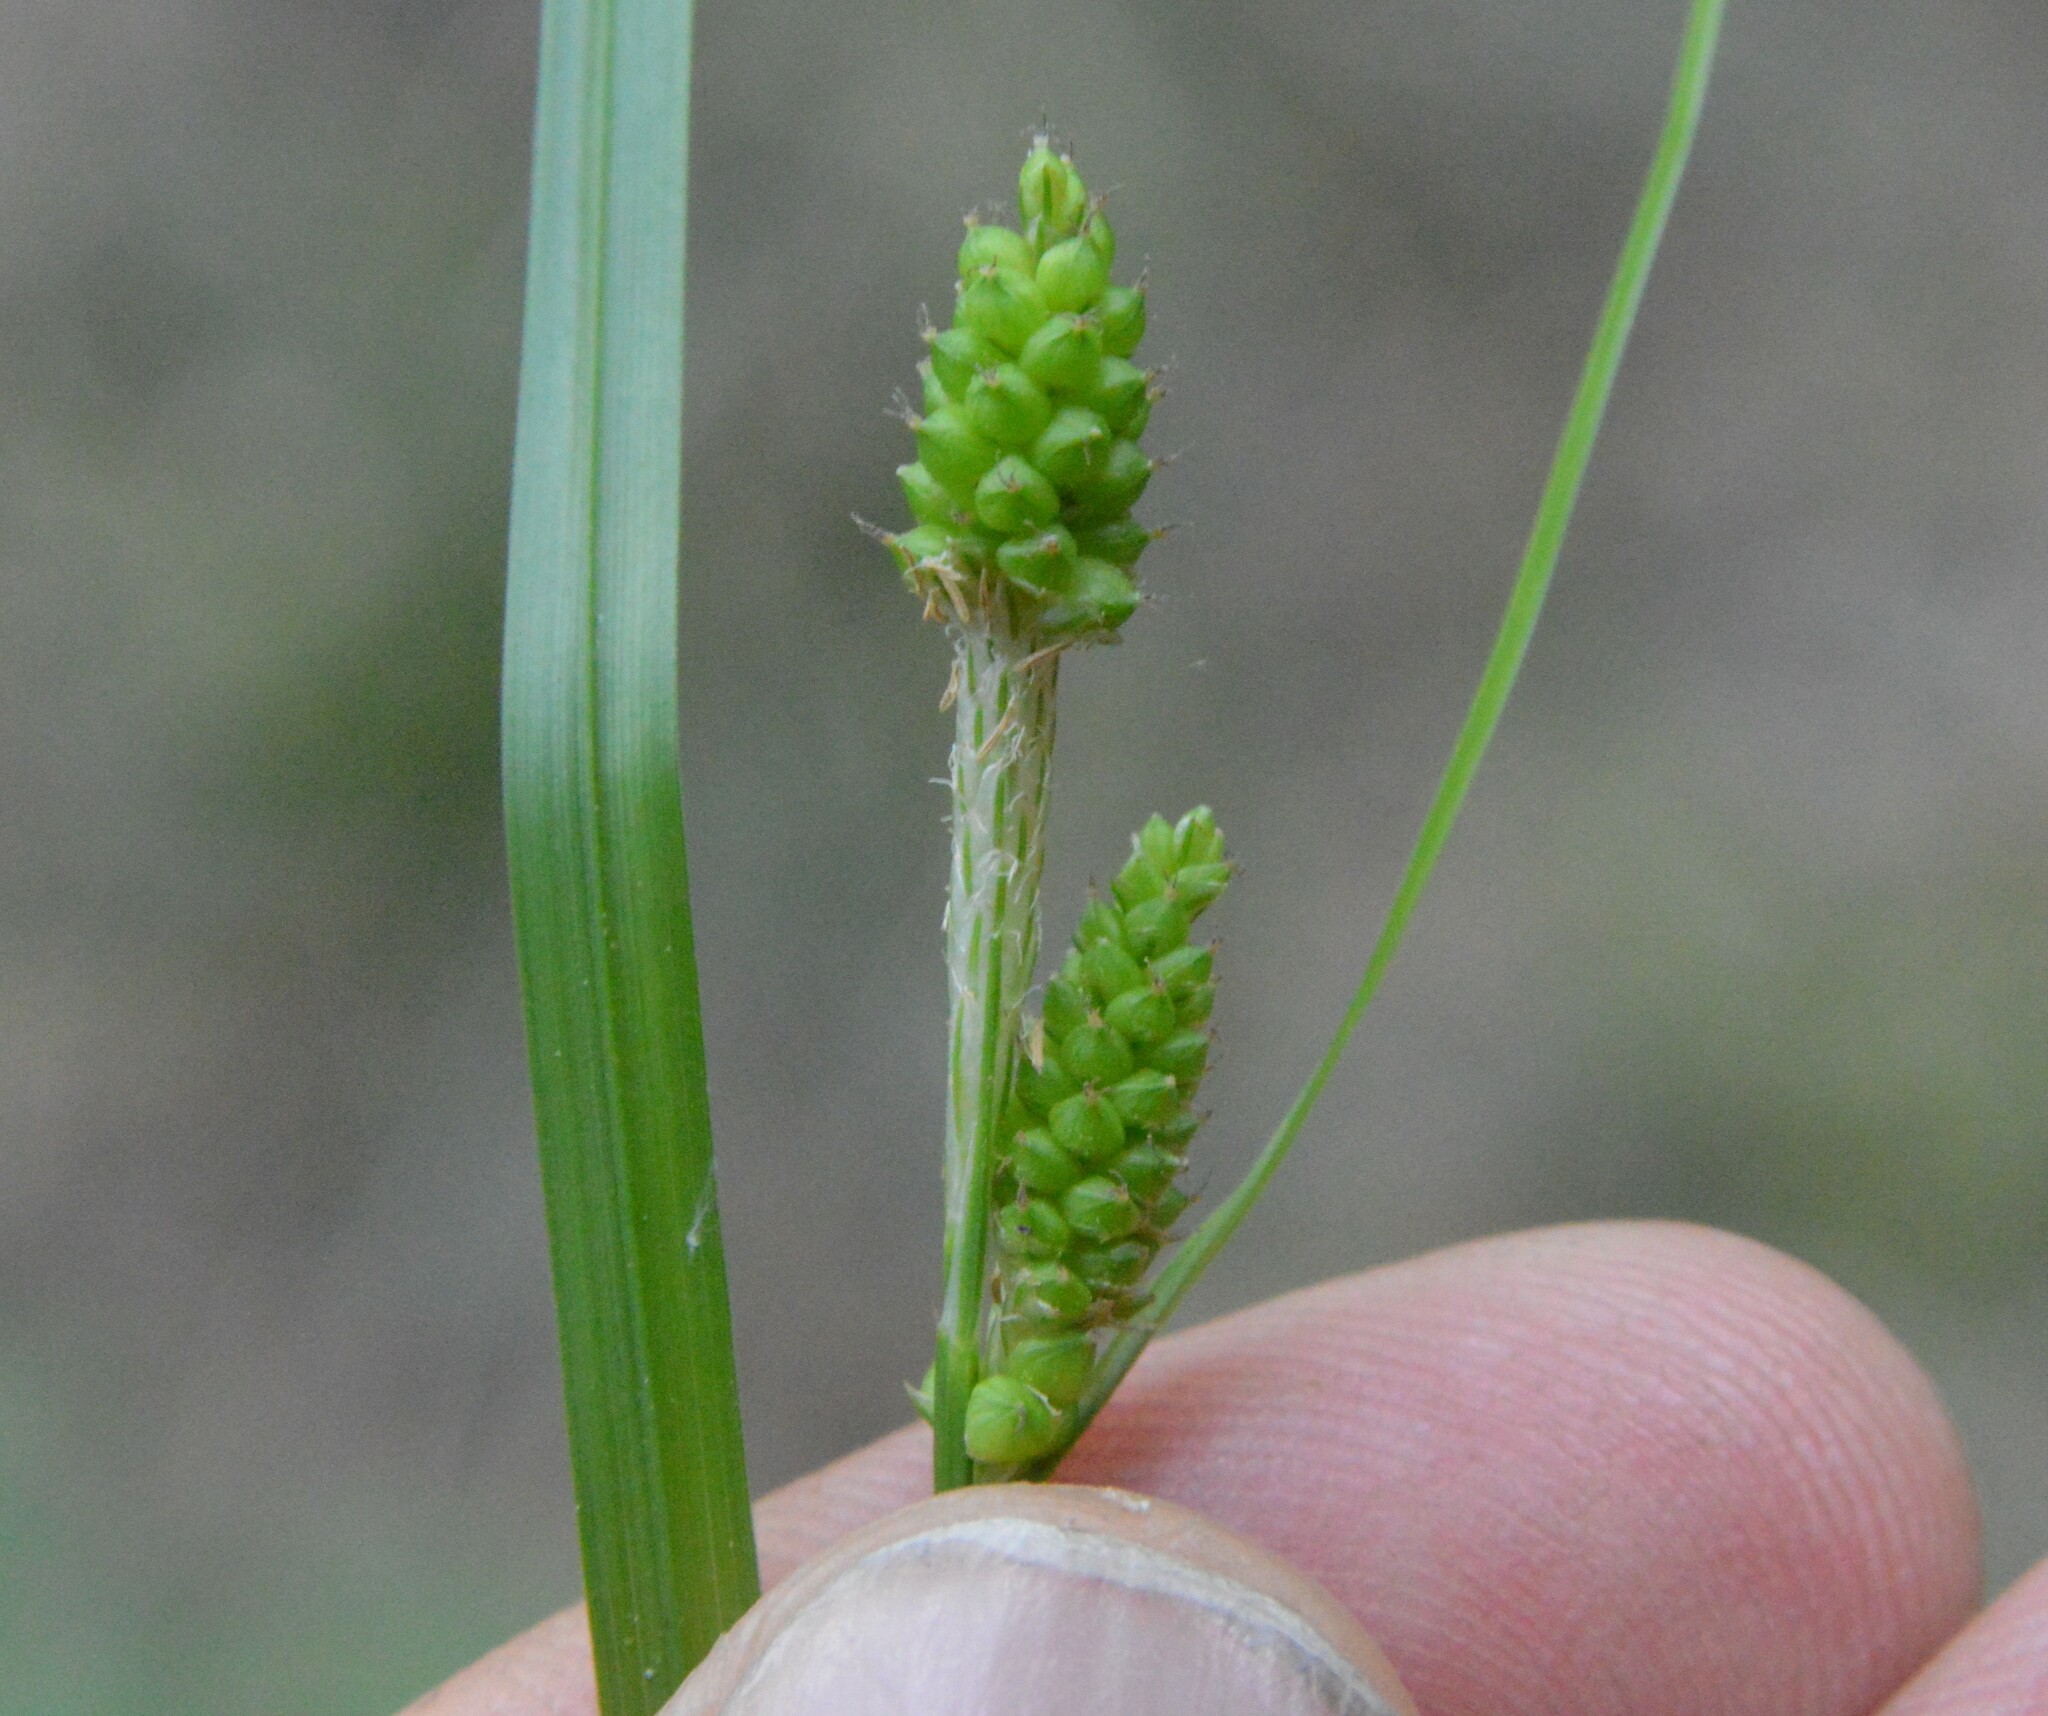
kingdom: Plantae
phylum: Tracheophyta
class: Liliopsida
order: Poales
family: Cyperaceae
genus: Carex
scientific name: Carex caroliniana
